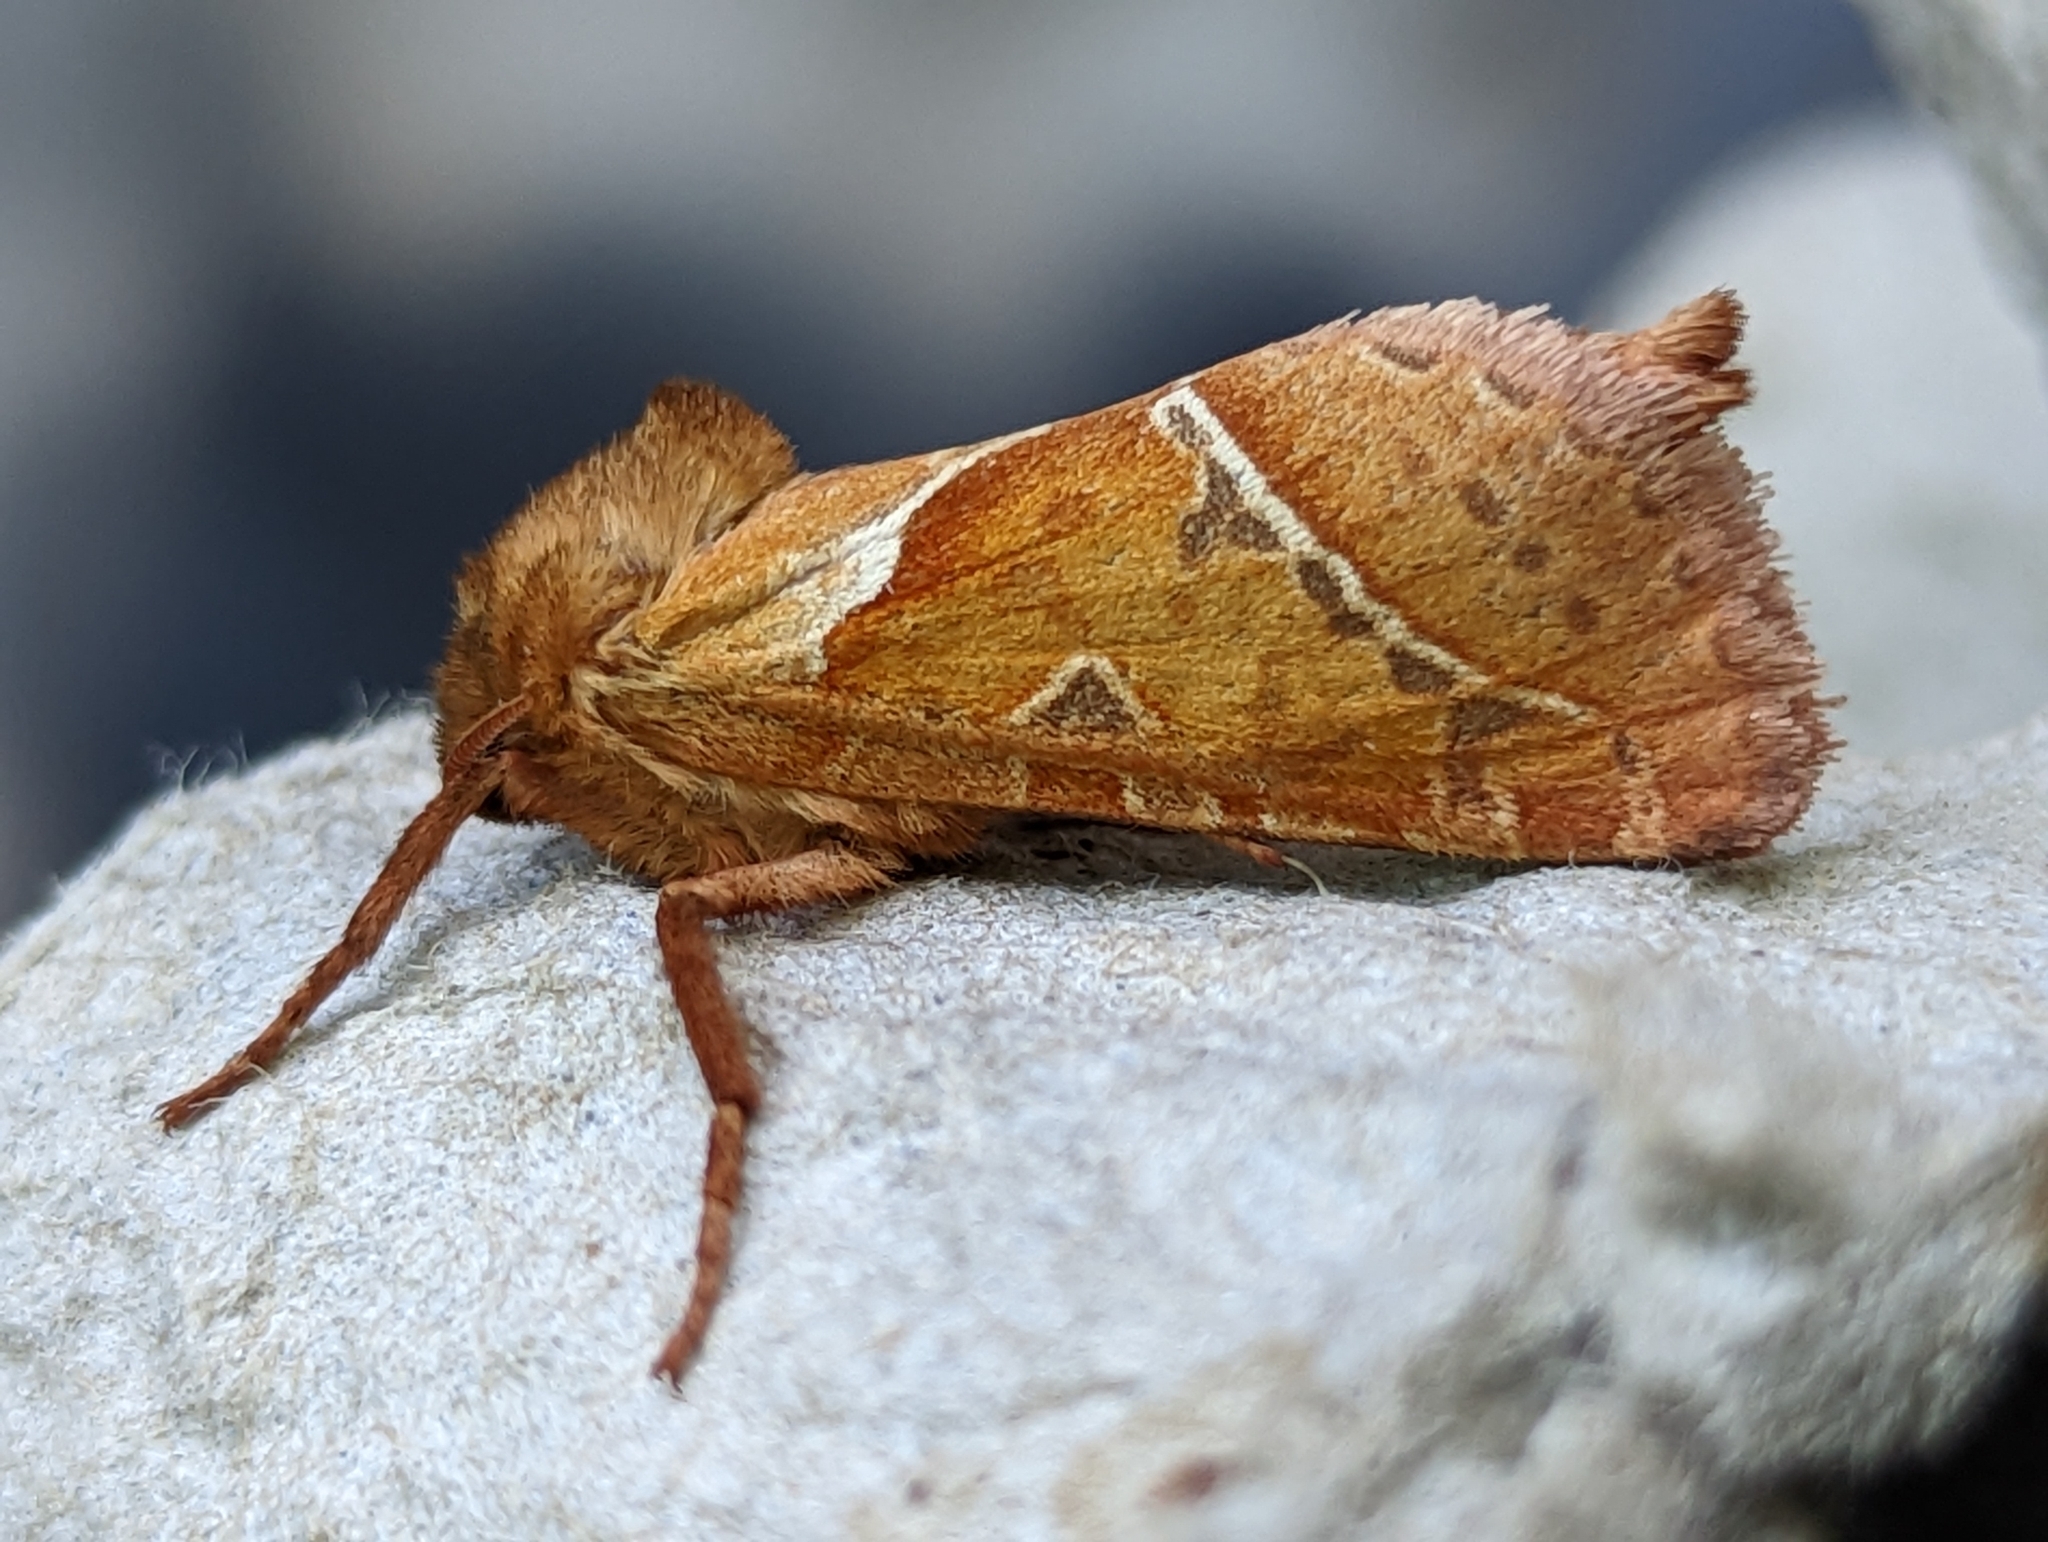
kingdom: Animalia
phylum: Arthropoda
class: Insecta
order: Lepidoptera
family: Hepialidae
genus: Triodia
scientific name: Triodia sylvina
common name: Orange swift
